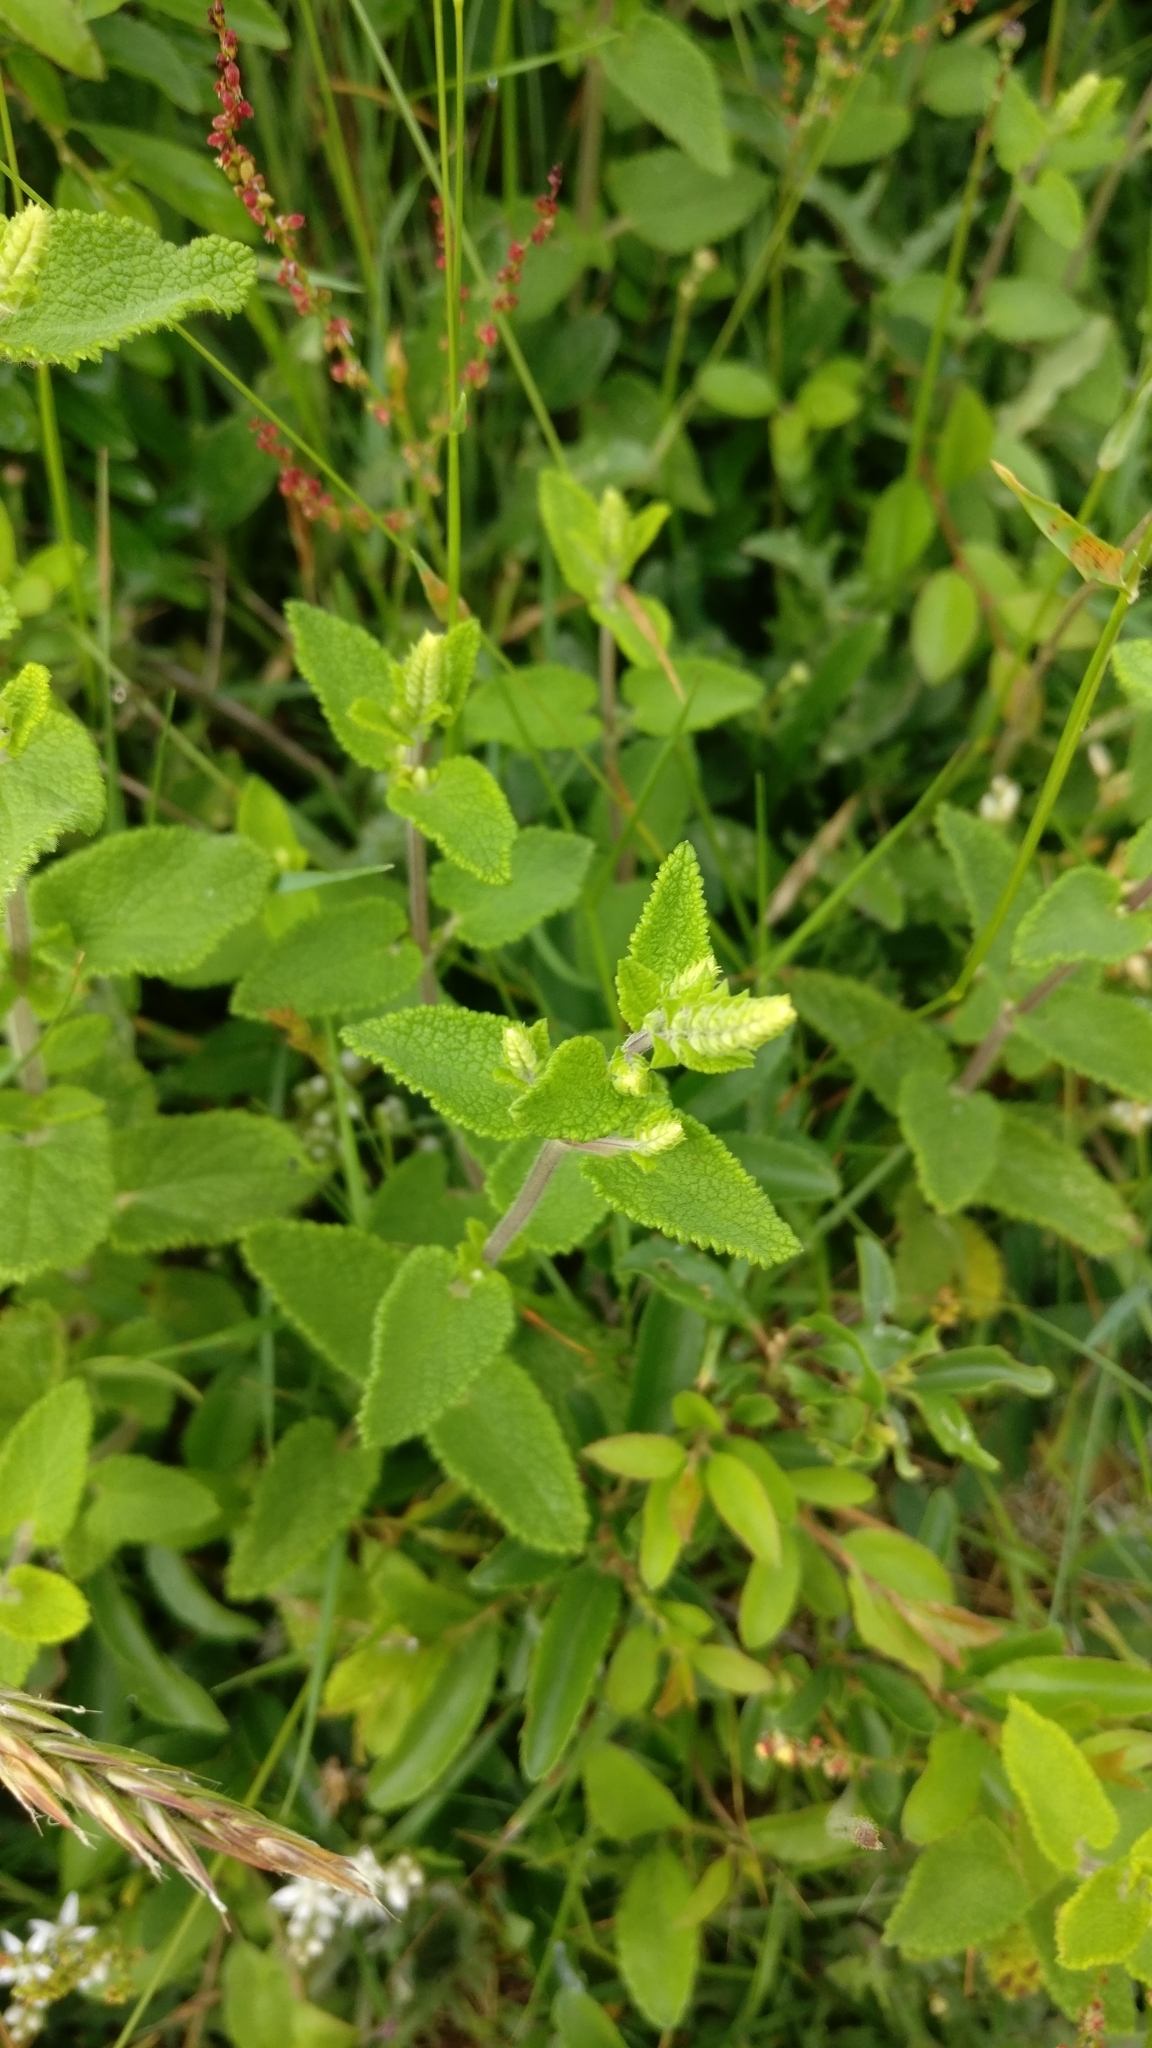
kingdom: Plantae
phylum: Tracheophyta
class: Magnoliopsida
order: Lamiales
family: Lamiaceae
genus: Teucrium
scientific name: Teucrium scorodonia
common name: Woodland germander
